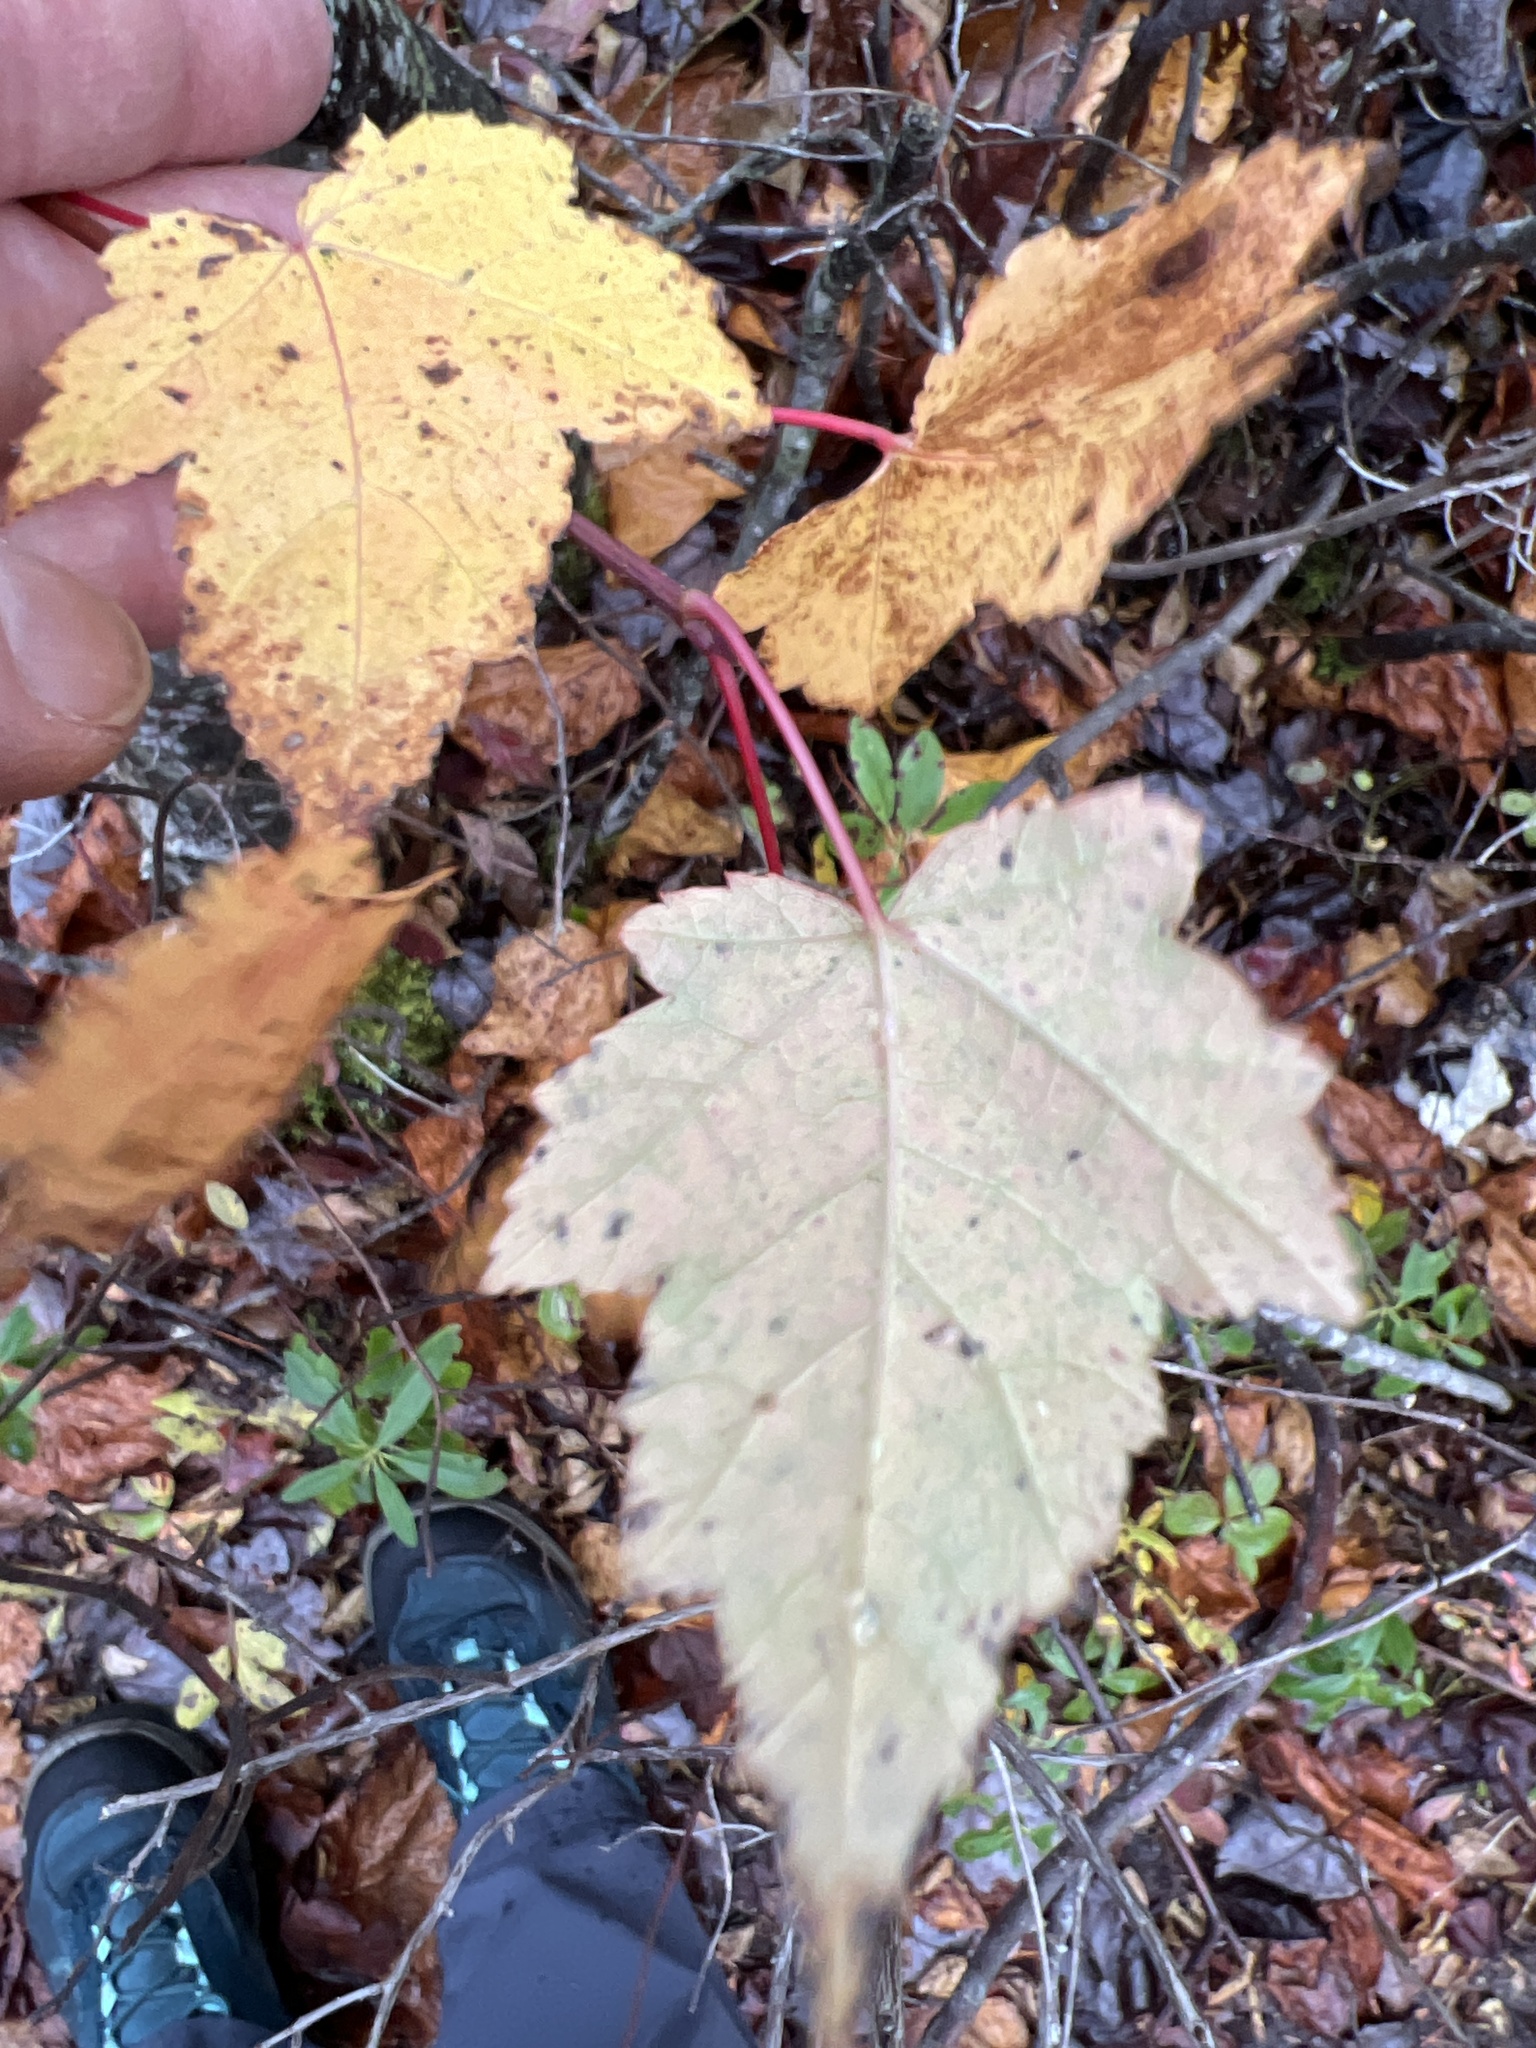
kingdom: Plantae
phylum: Tracheophyta
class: Magnoliopsida
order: Sapindales
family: Sapindaceae
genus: Acer
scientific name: Acer rubrum
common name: Red maple
